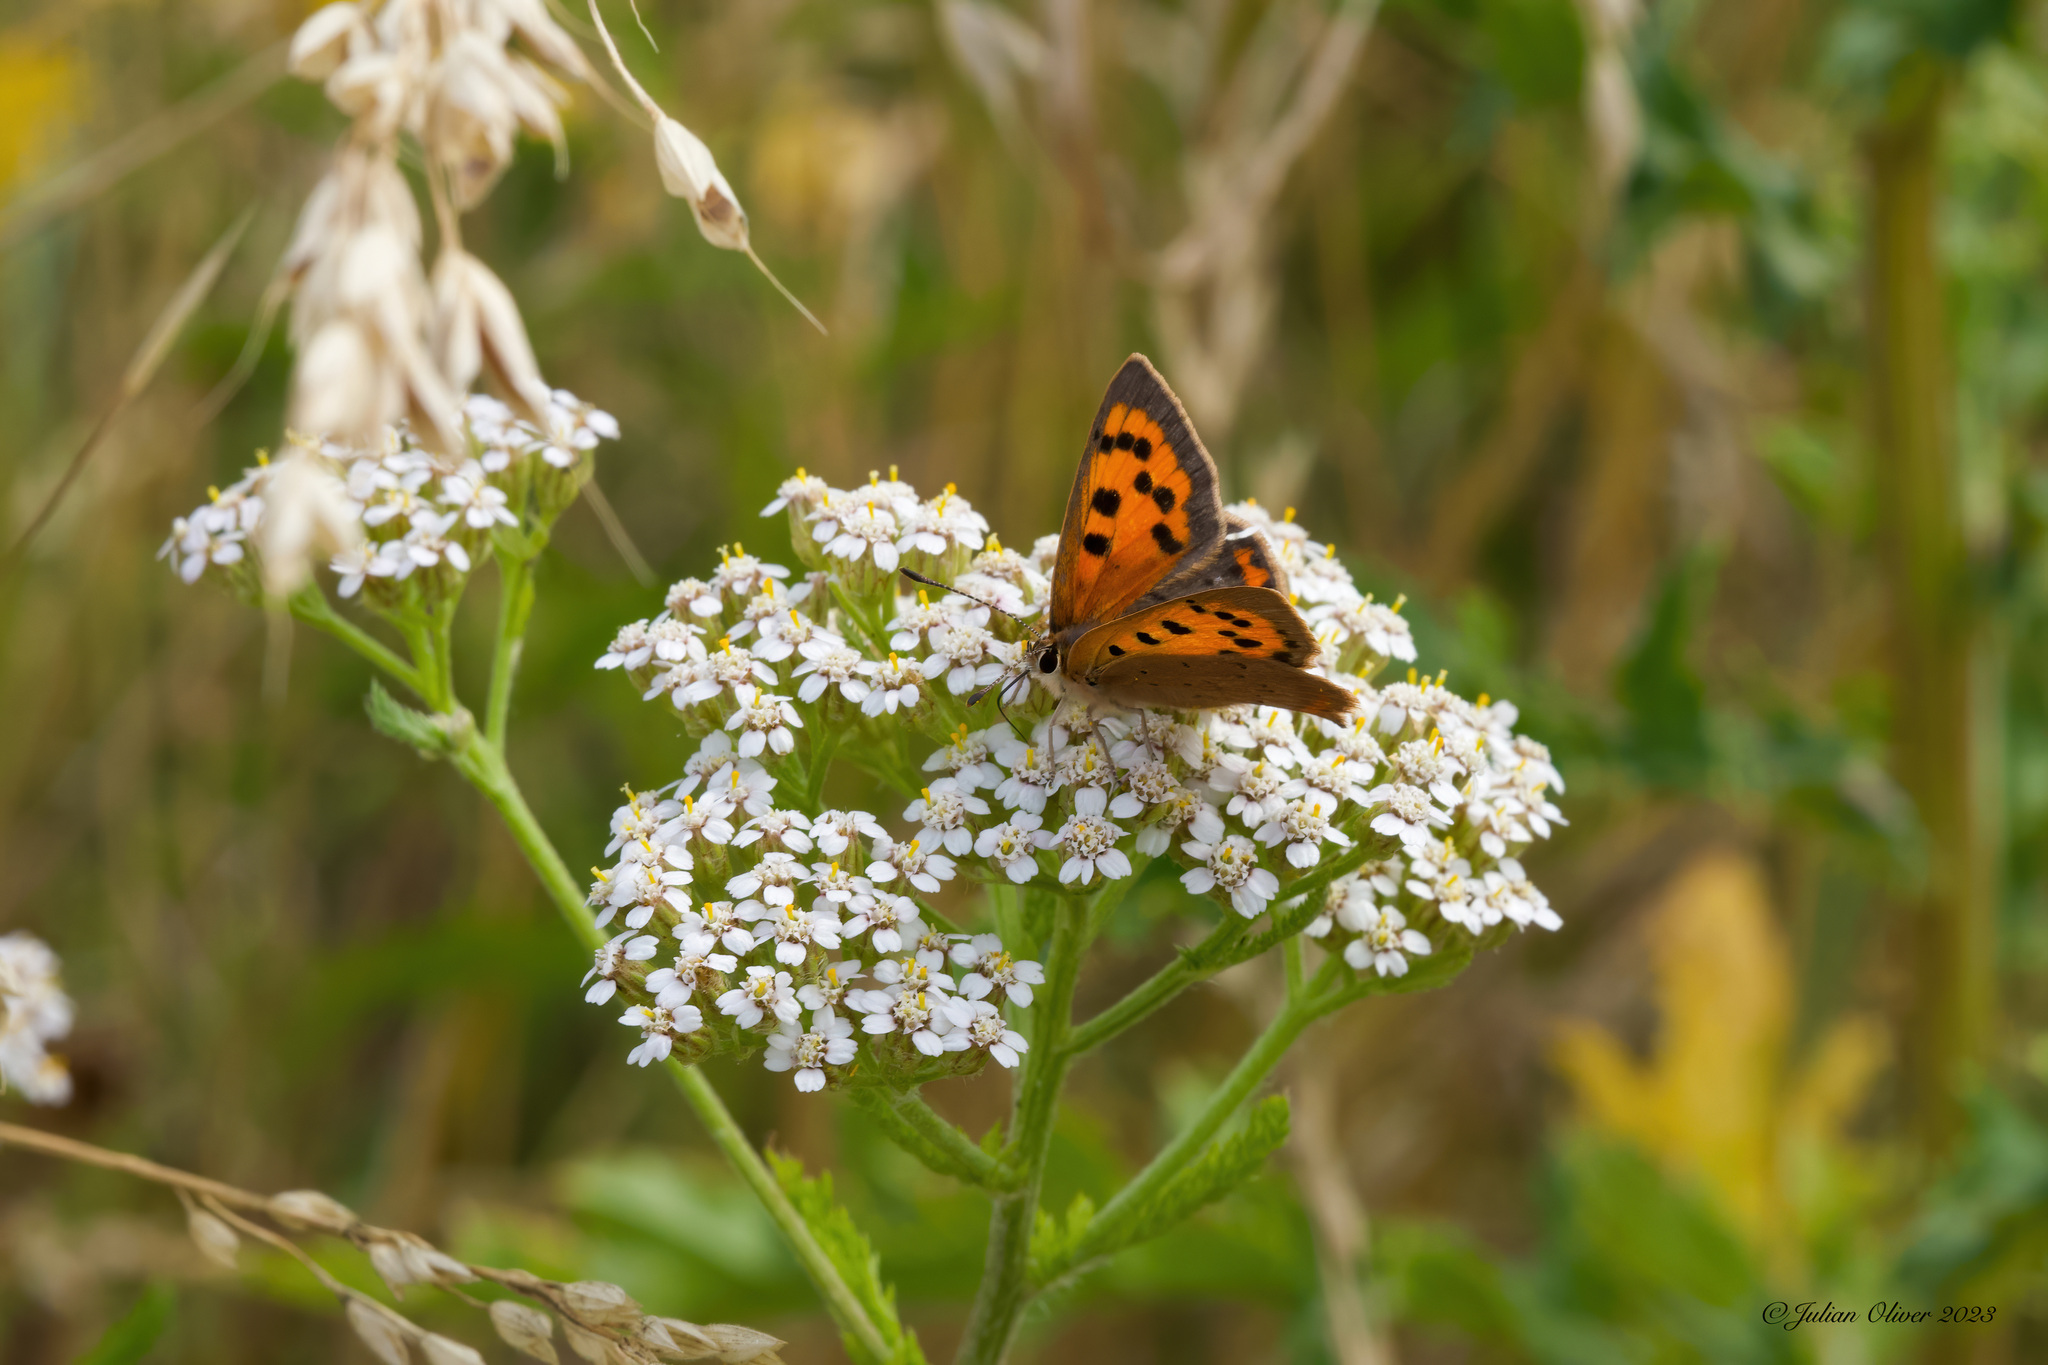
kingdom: Animalia
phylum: Arthropoda
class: Insecta
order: Lepidoptera
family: Lycaenidae
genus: Lycaena
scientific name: Lycaena phlaeas
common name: Small copper
